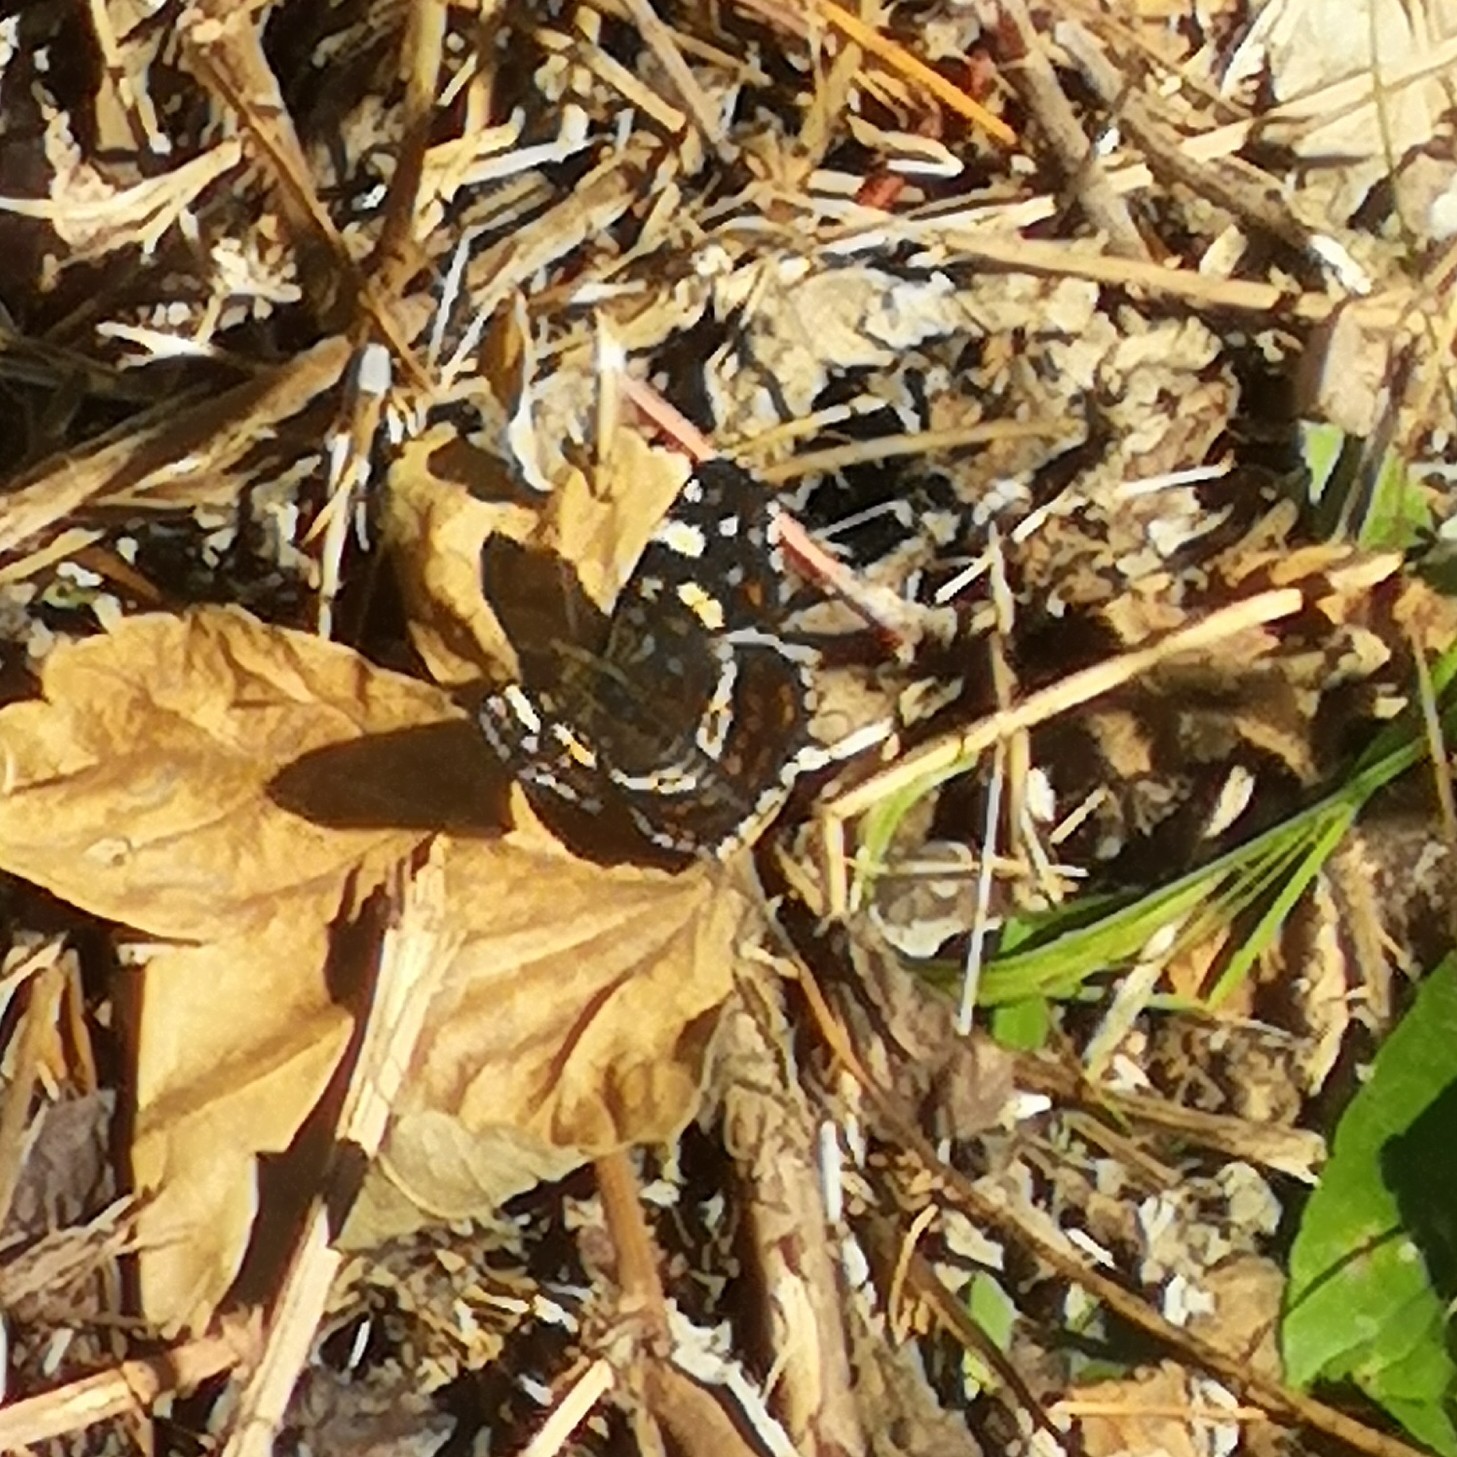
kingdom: Animalia
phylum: Arthropoda
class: Insecta
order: Lepidoptera
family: Nymphalidae
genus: Araschnia
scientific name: Araschnia levana
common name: Map butterfly
